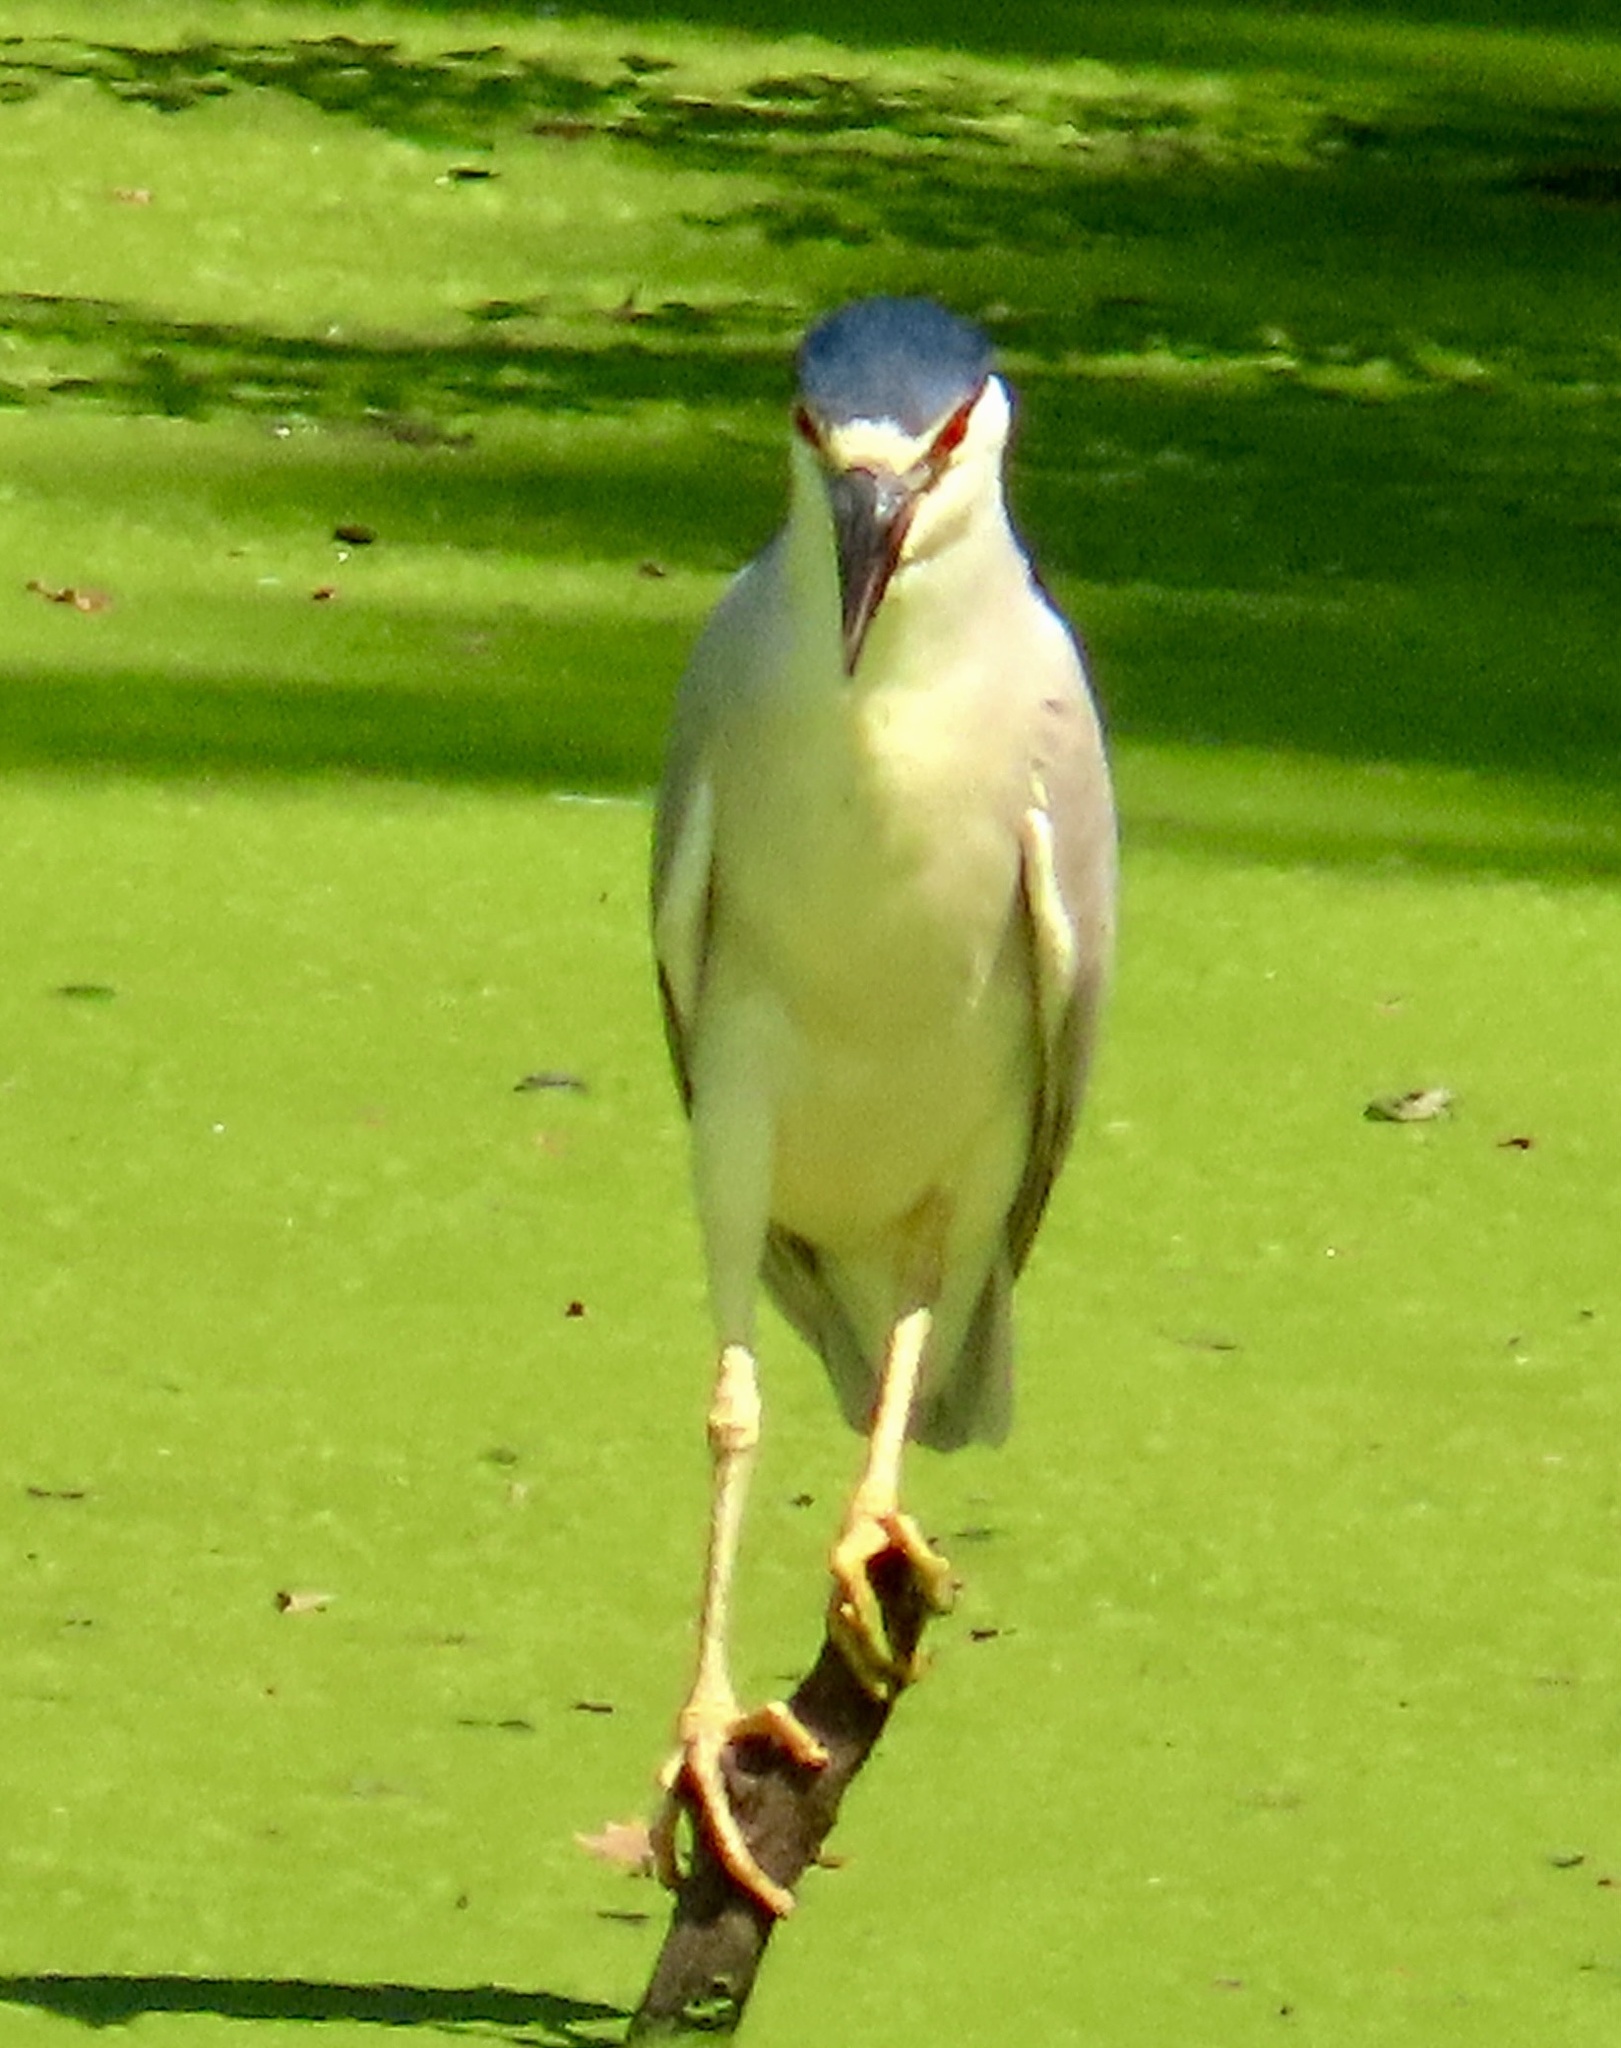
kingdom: Animalia
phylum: Chordata
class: Aves
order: Pelecaniformes
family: Ardeidae
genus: Nycticorax
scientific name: Nycticorax nycticorax
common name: Black-crowned night heron
